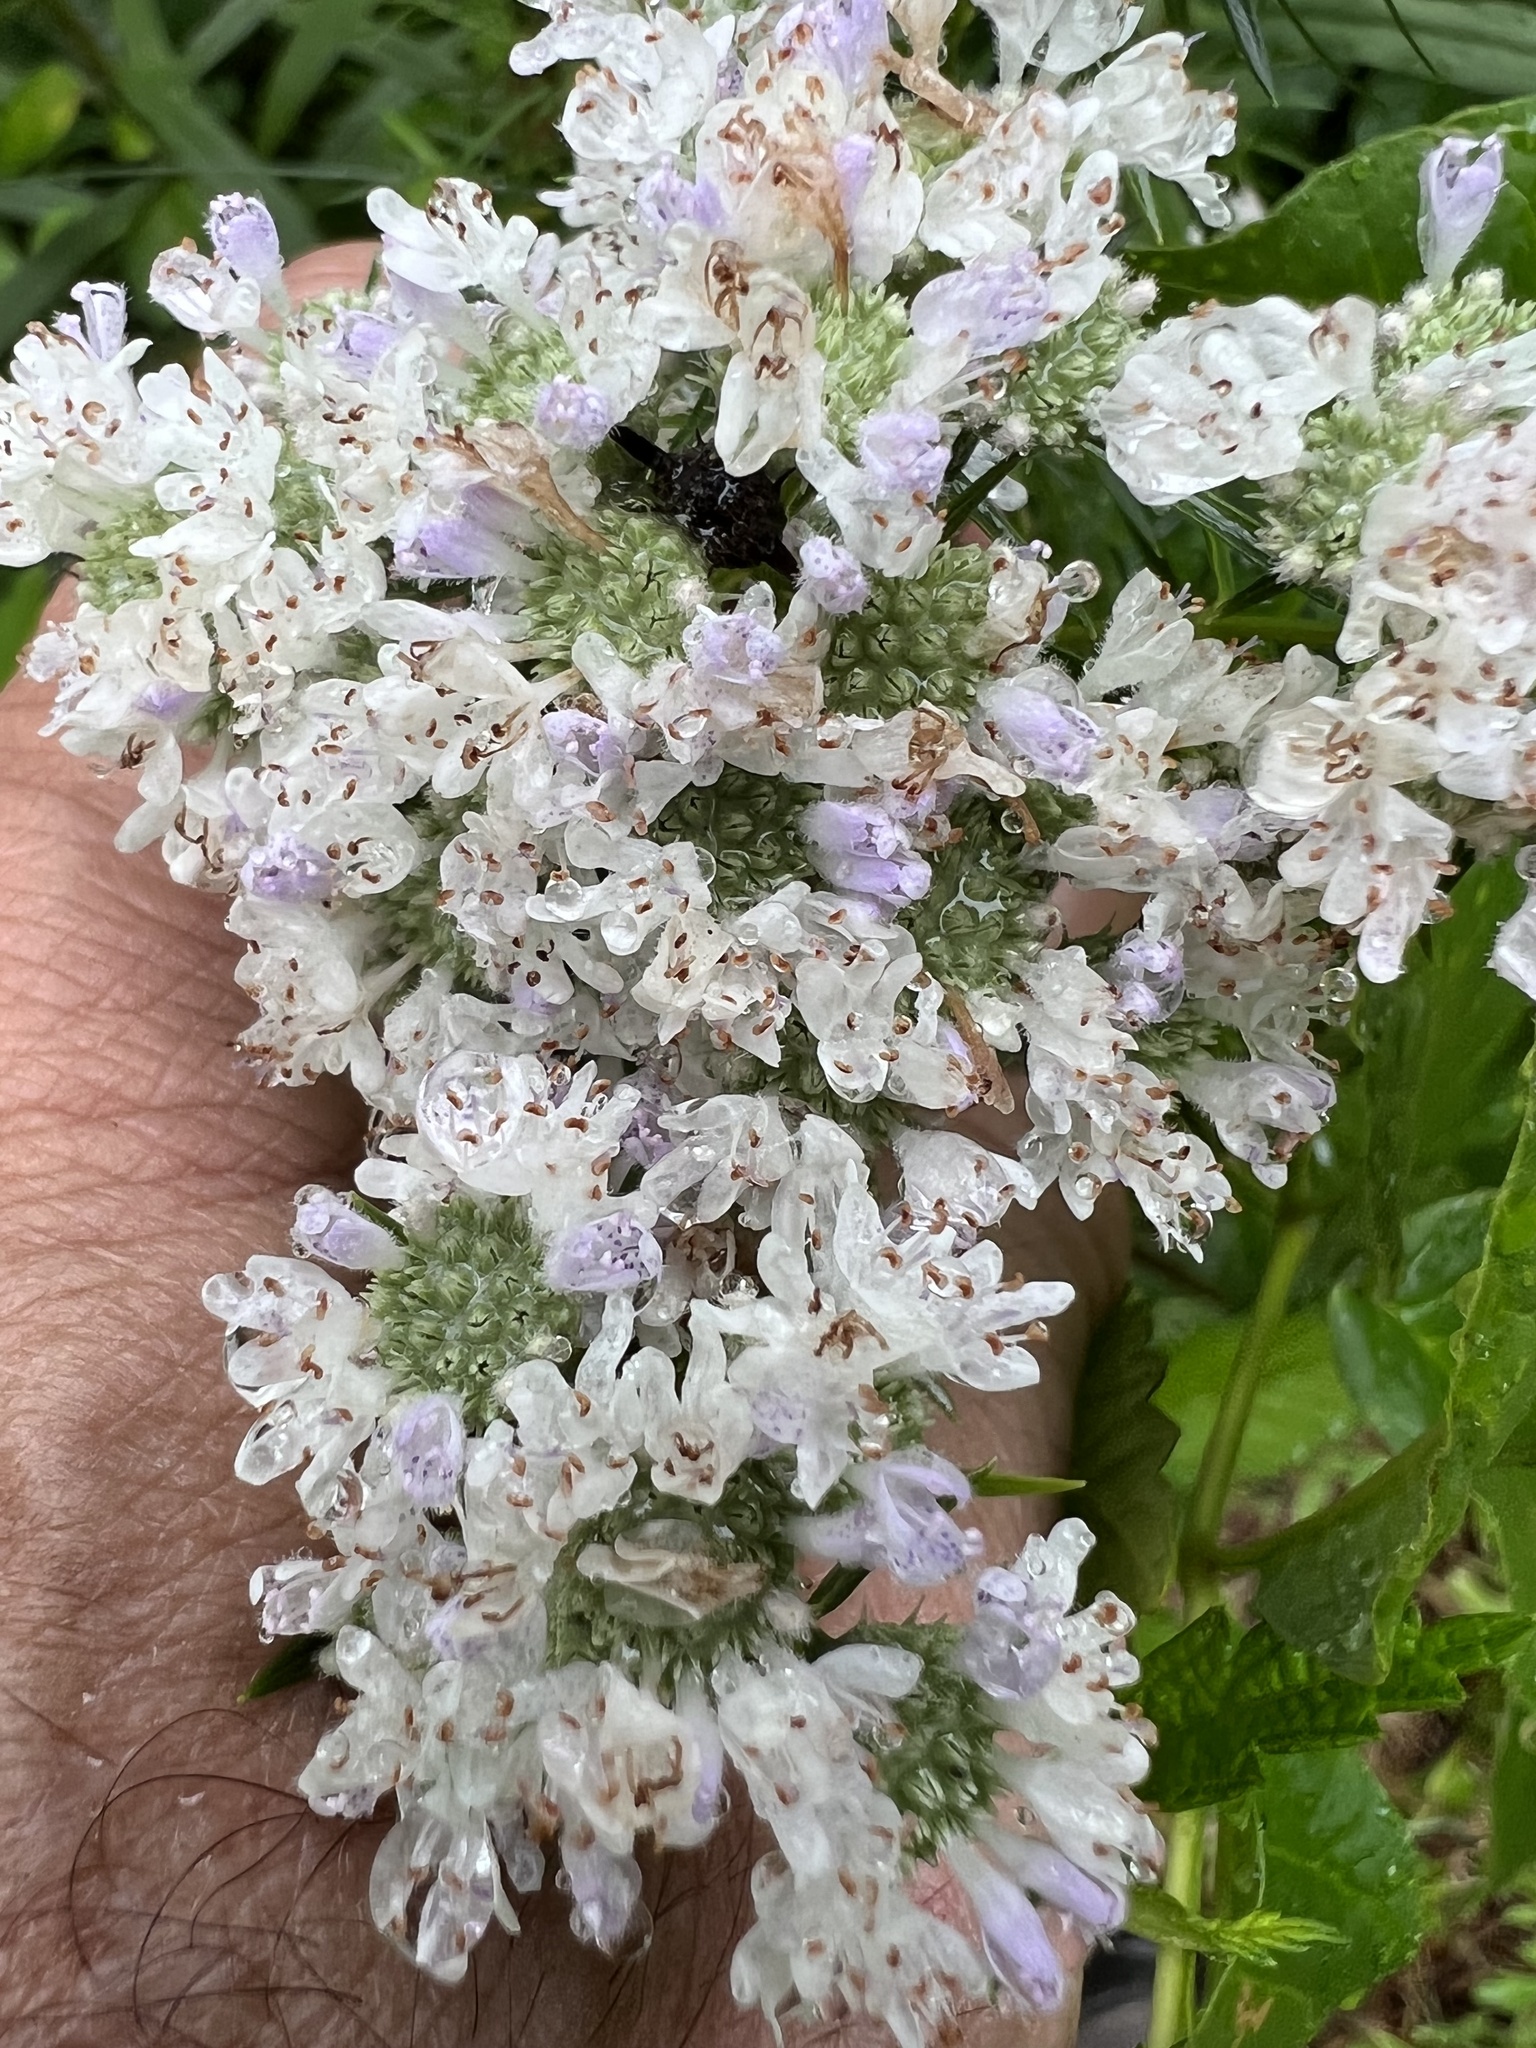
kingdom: Plantae
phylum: Tracheophyta
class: Magnoliopsida
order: Lamiales
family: Lamiaceae
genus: Pycnanthemum
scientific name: Pycnanthemum tenuifolium
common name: Narrow-leaf mountain-mint
